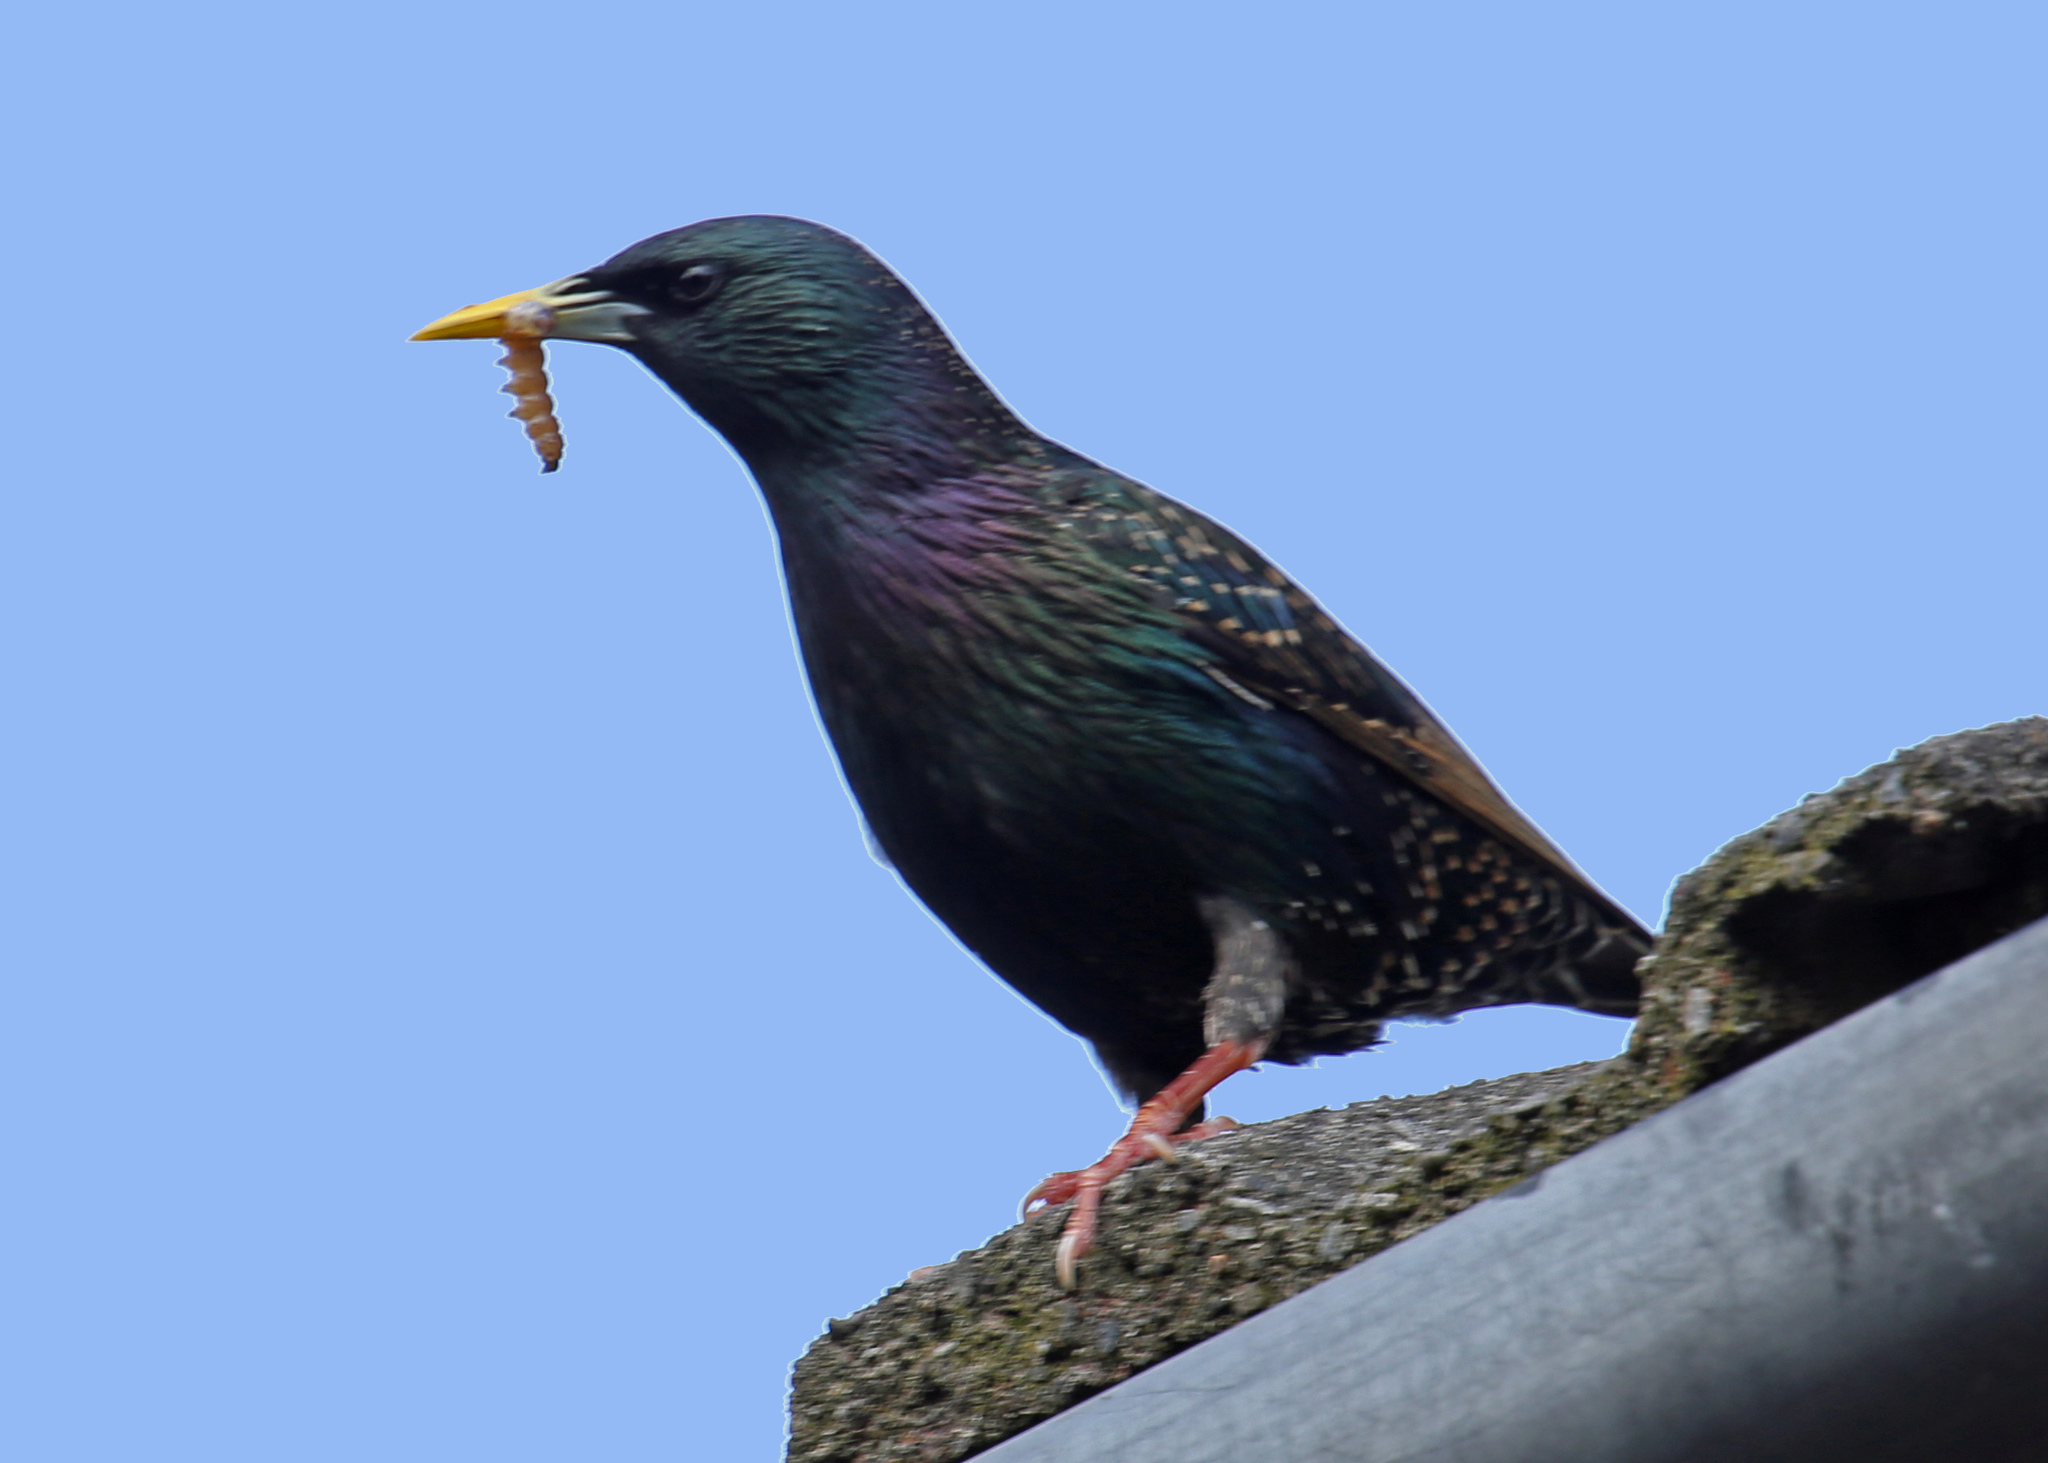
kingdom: Animalia
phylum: Chordata
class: Aves
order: Passeriformes
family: Sturnidae
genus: Sturnus
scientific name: Sturnus vulgaris
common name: Common starling
